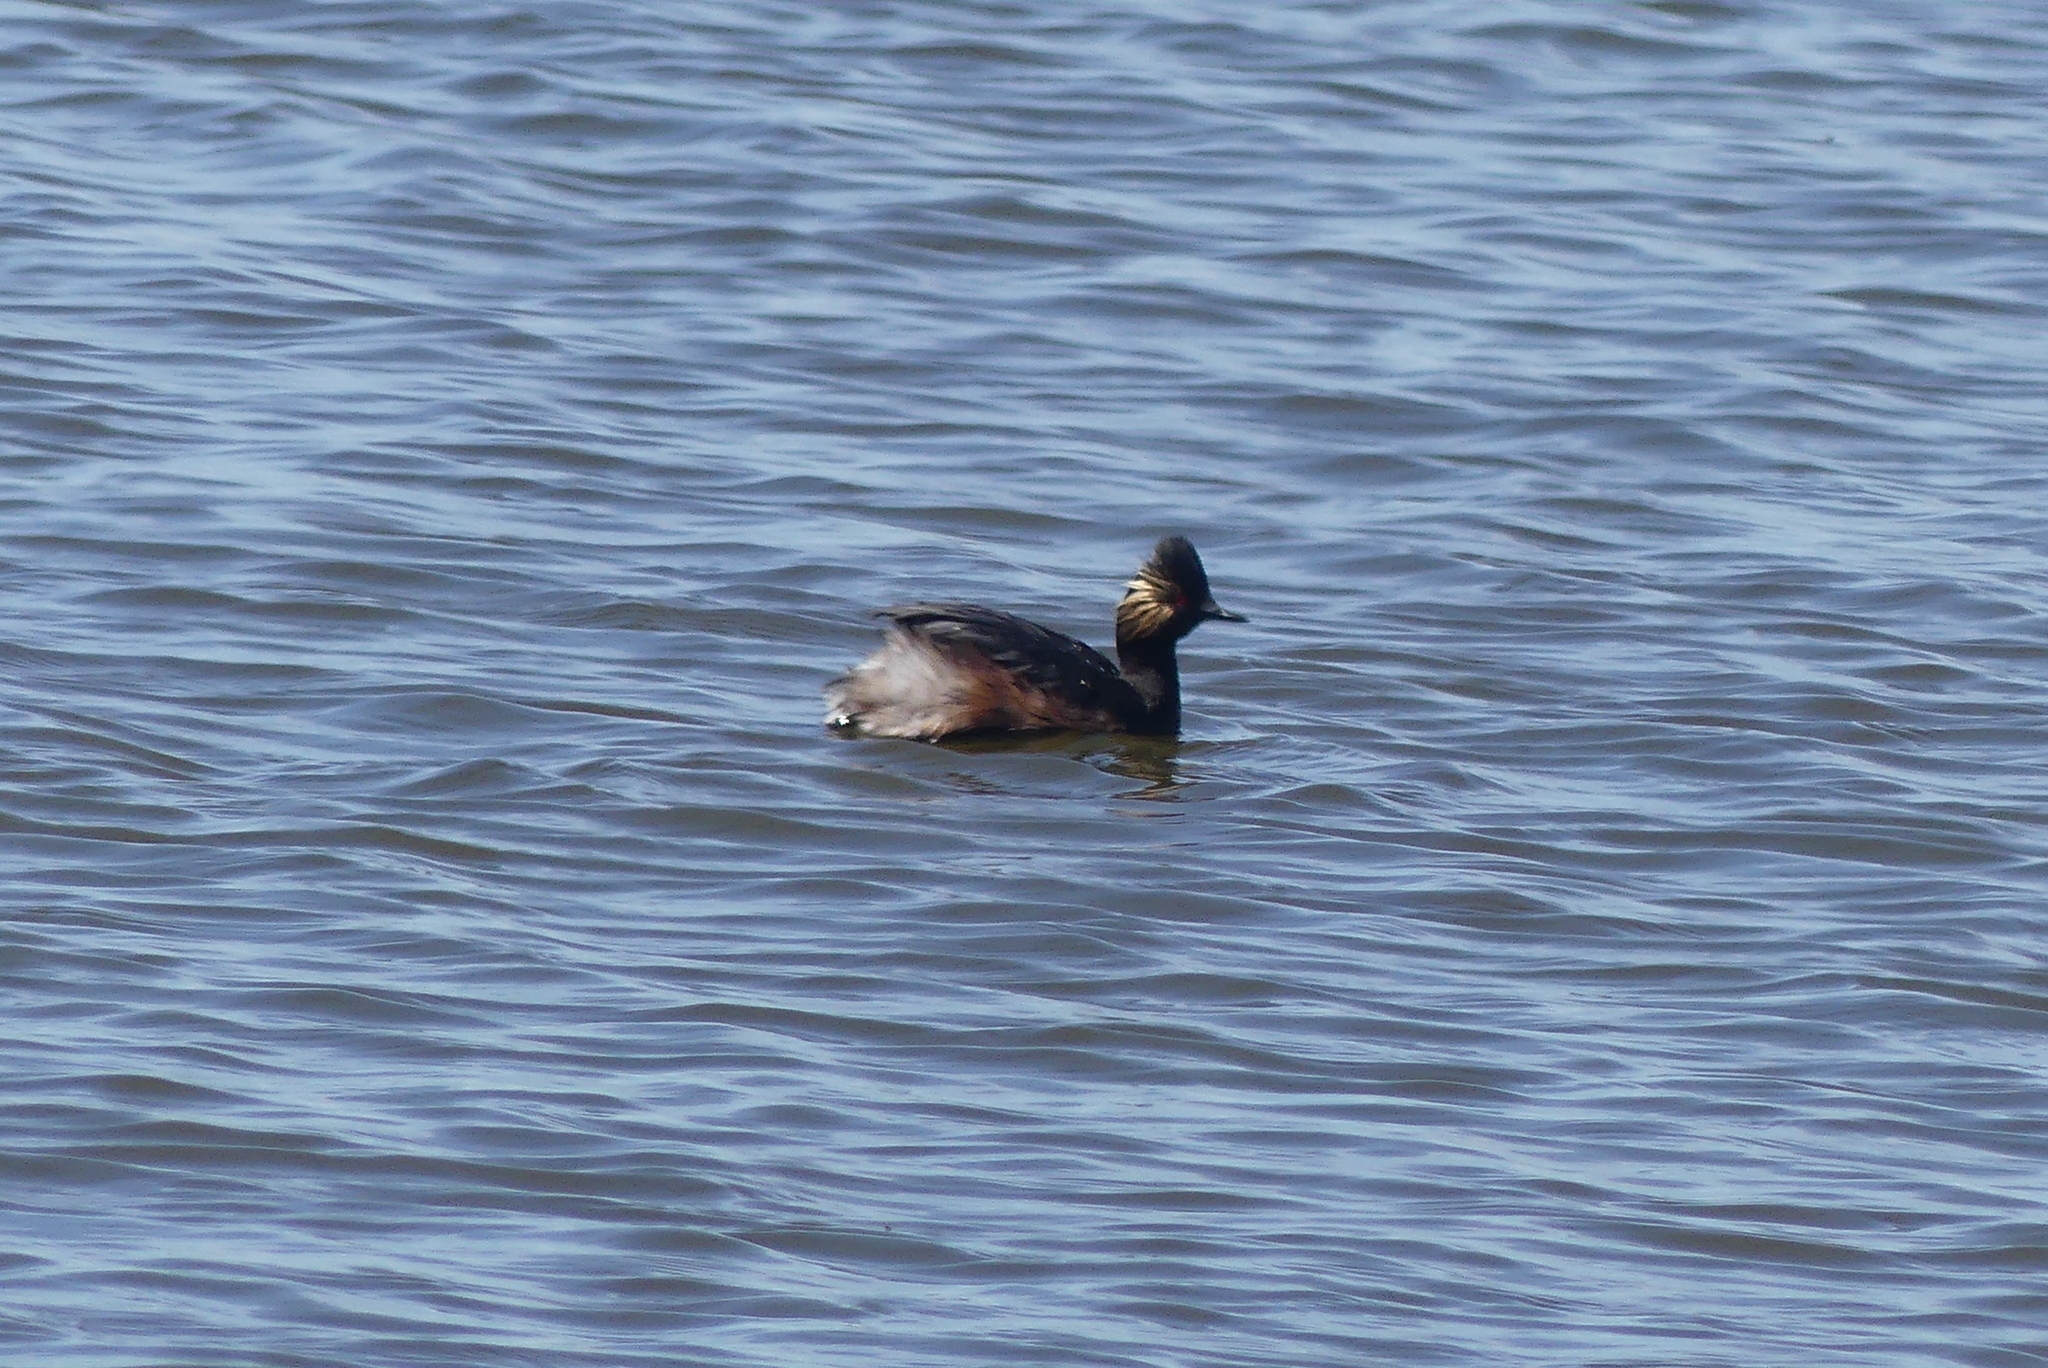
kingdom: Animalia
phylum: Chordata
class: Aves
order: Podicipediformes
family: Podicipedidae
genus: Podiceps
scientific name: Podiceps nigricollis
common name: Black-necked grebe
